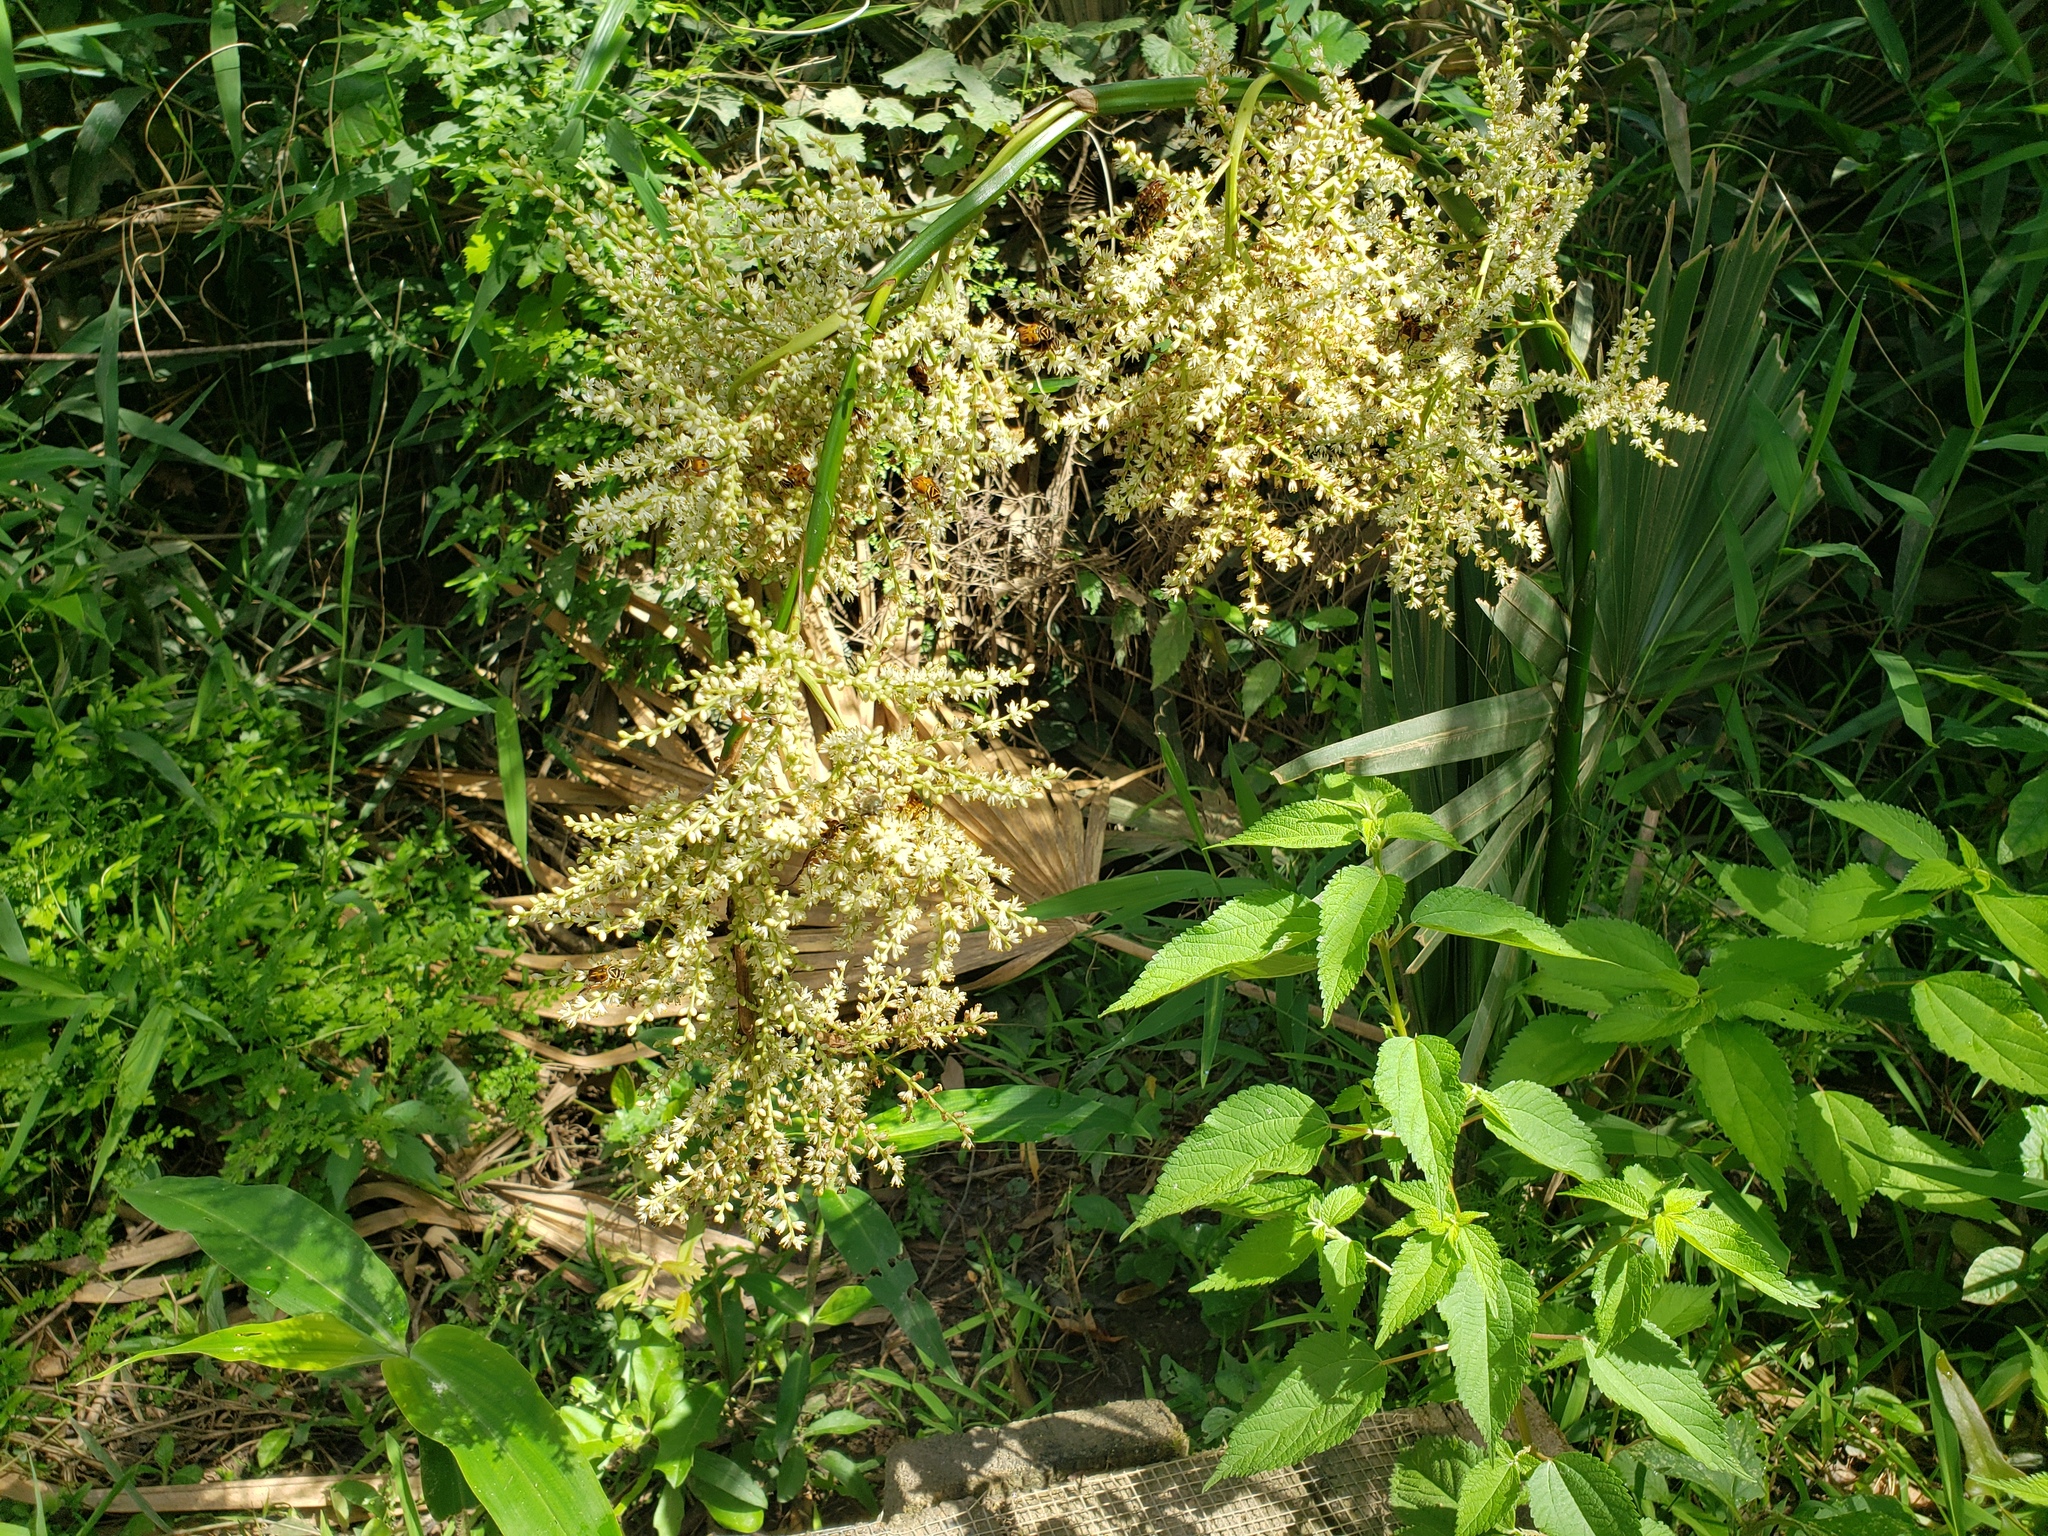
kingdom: Plantae
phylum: Tracheophyta
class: Liliopsida
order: Arecales
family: Arecaceae
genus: Serenoa
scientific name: Serenoa repens
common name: Saw-palmetto
